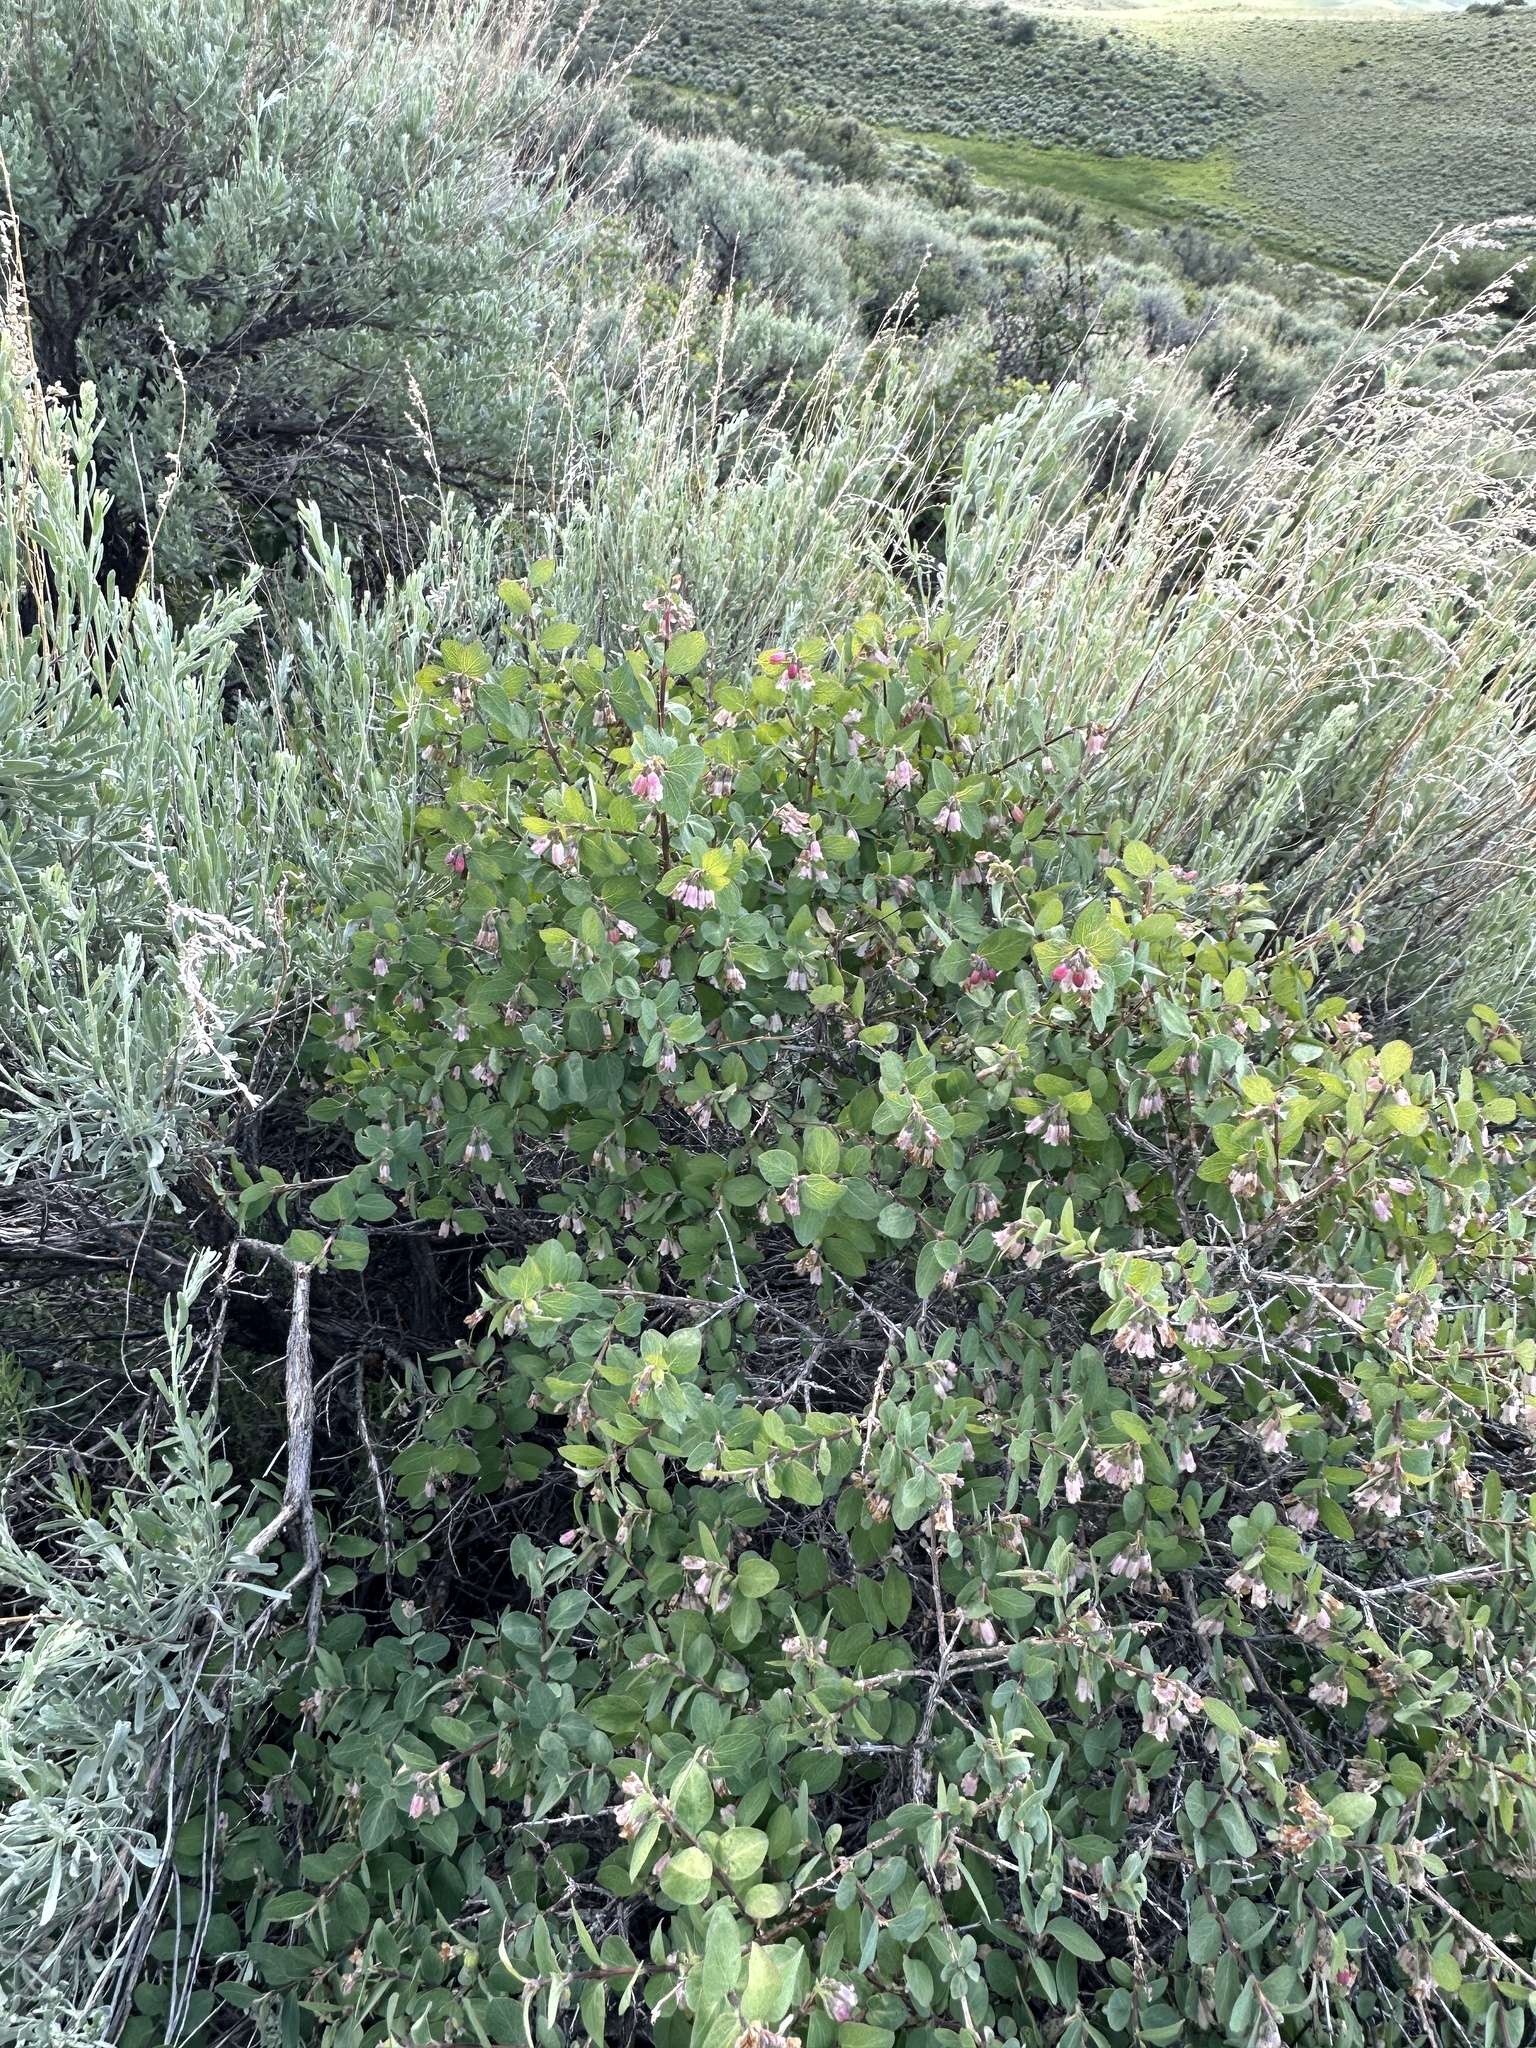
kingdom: Plantae
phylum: Tracheophyta
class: Magnoliopsida
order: Dipsacales
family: Caprifoliaceae
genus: Symphoricarpos
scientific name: Symphoricarpos rotundifolius
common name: Round-leaved snowberry
